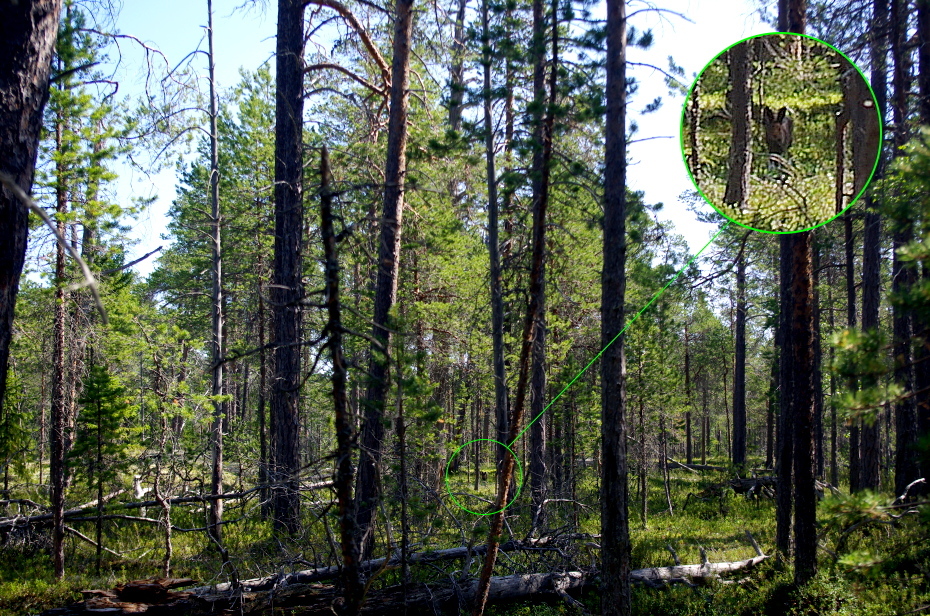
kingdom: Animalia
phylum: Chordata
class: Mammalia
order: Lagomorpha
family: Leporidae
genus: Lepus
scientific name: Lepus timidus
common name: Mountain hare
